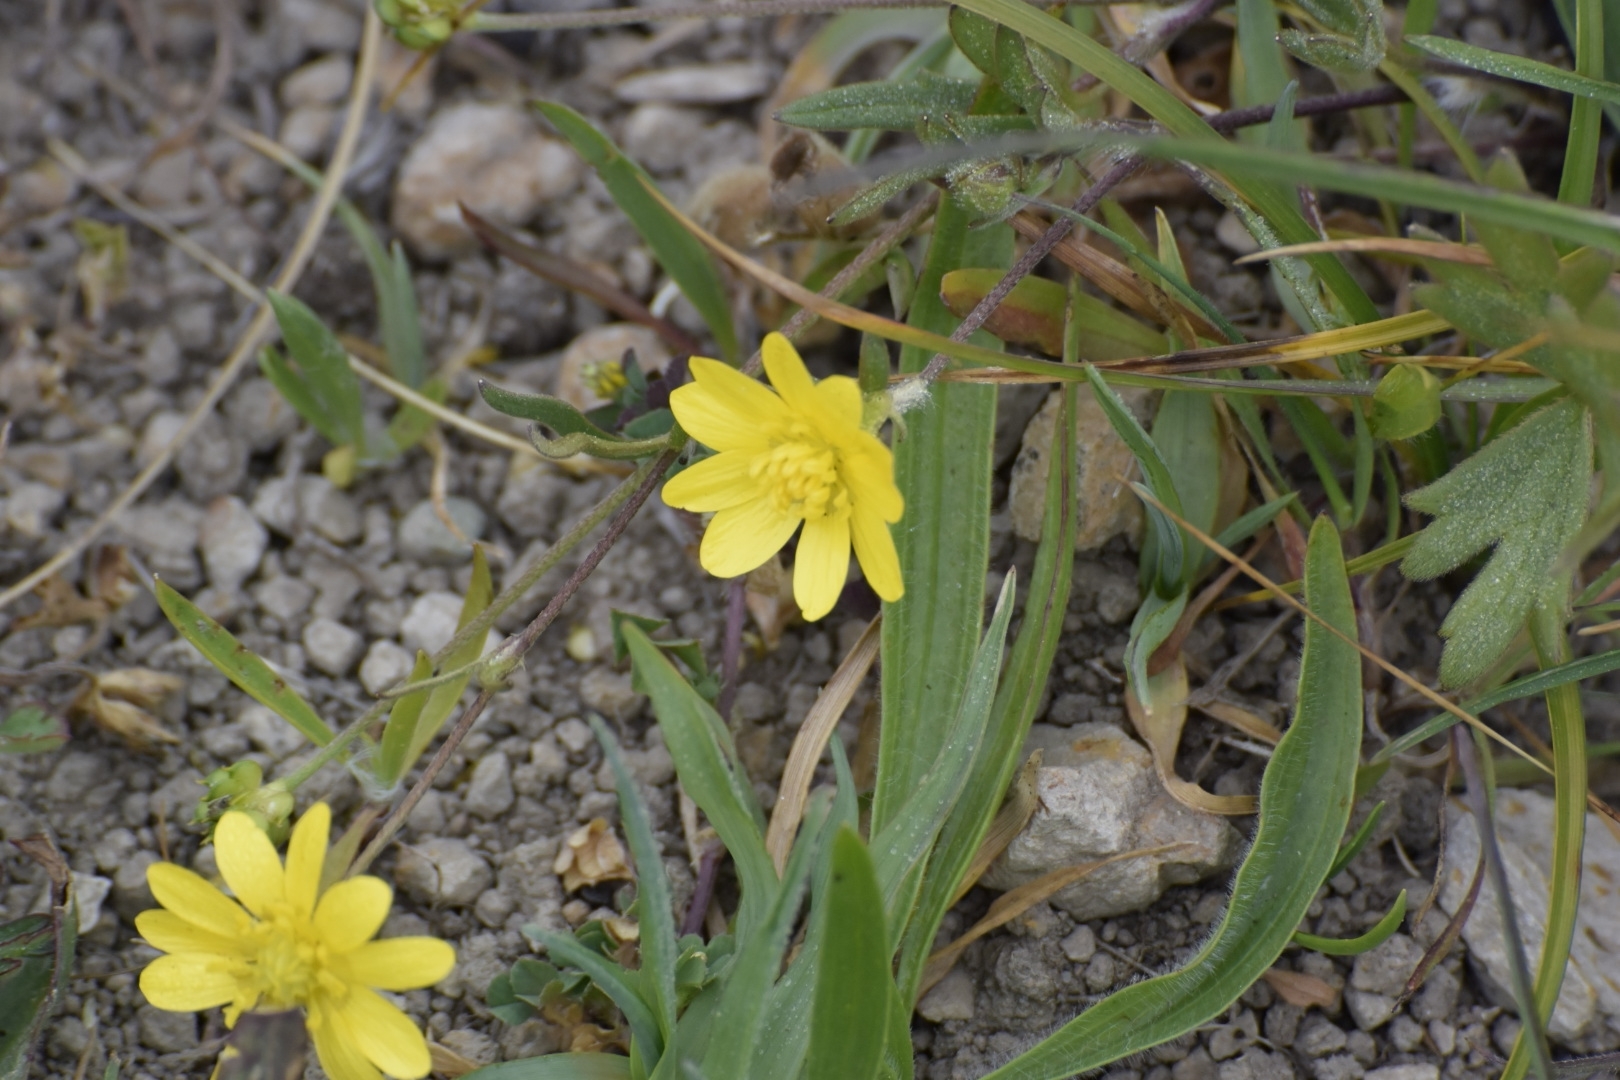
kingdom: Plantae
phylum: Tracheophyta
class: Magnoliopsida
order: Ranunculales
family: Ranunculaceae
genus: Ranunculus
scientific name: Ranunculus californicus
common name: California buttercup
